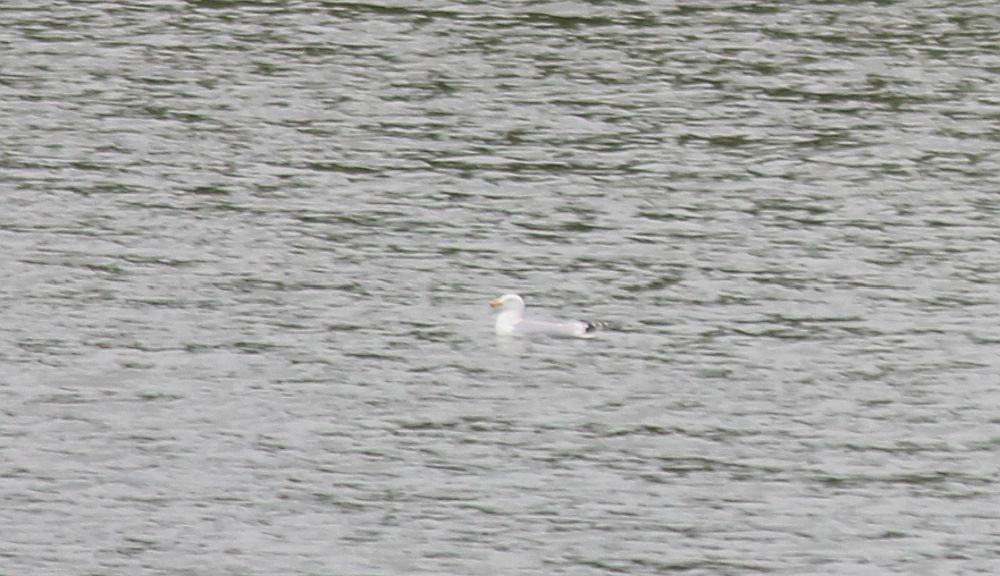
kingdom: Animalia
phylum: Chordata
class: Aves
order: Charadriiformes
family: Laridae
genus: Larus
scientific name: Larus argentatus
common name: Herring gull
